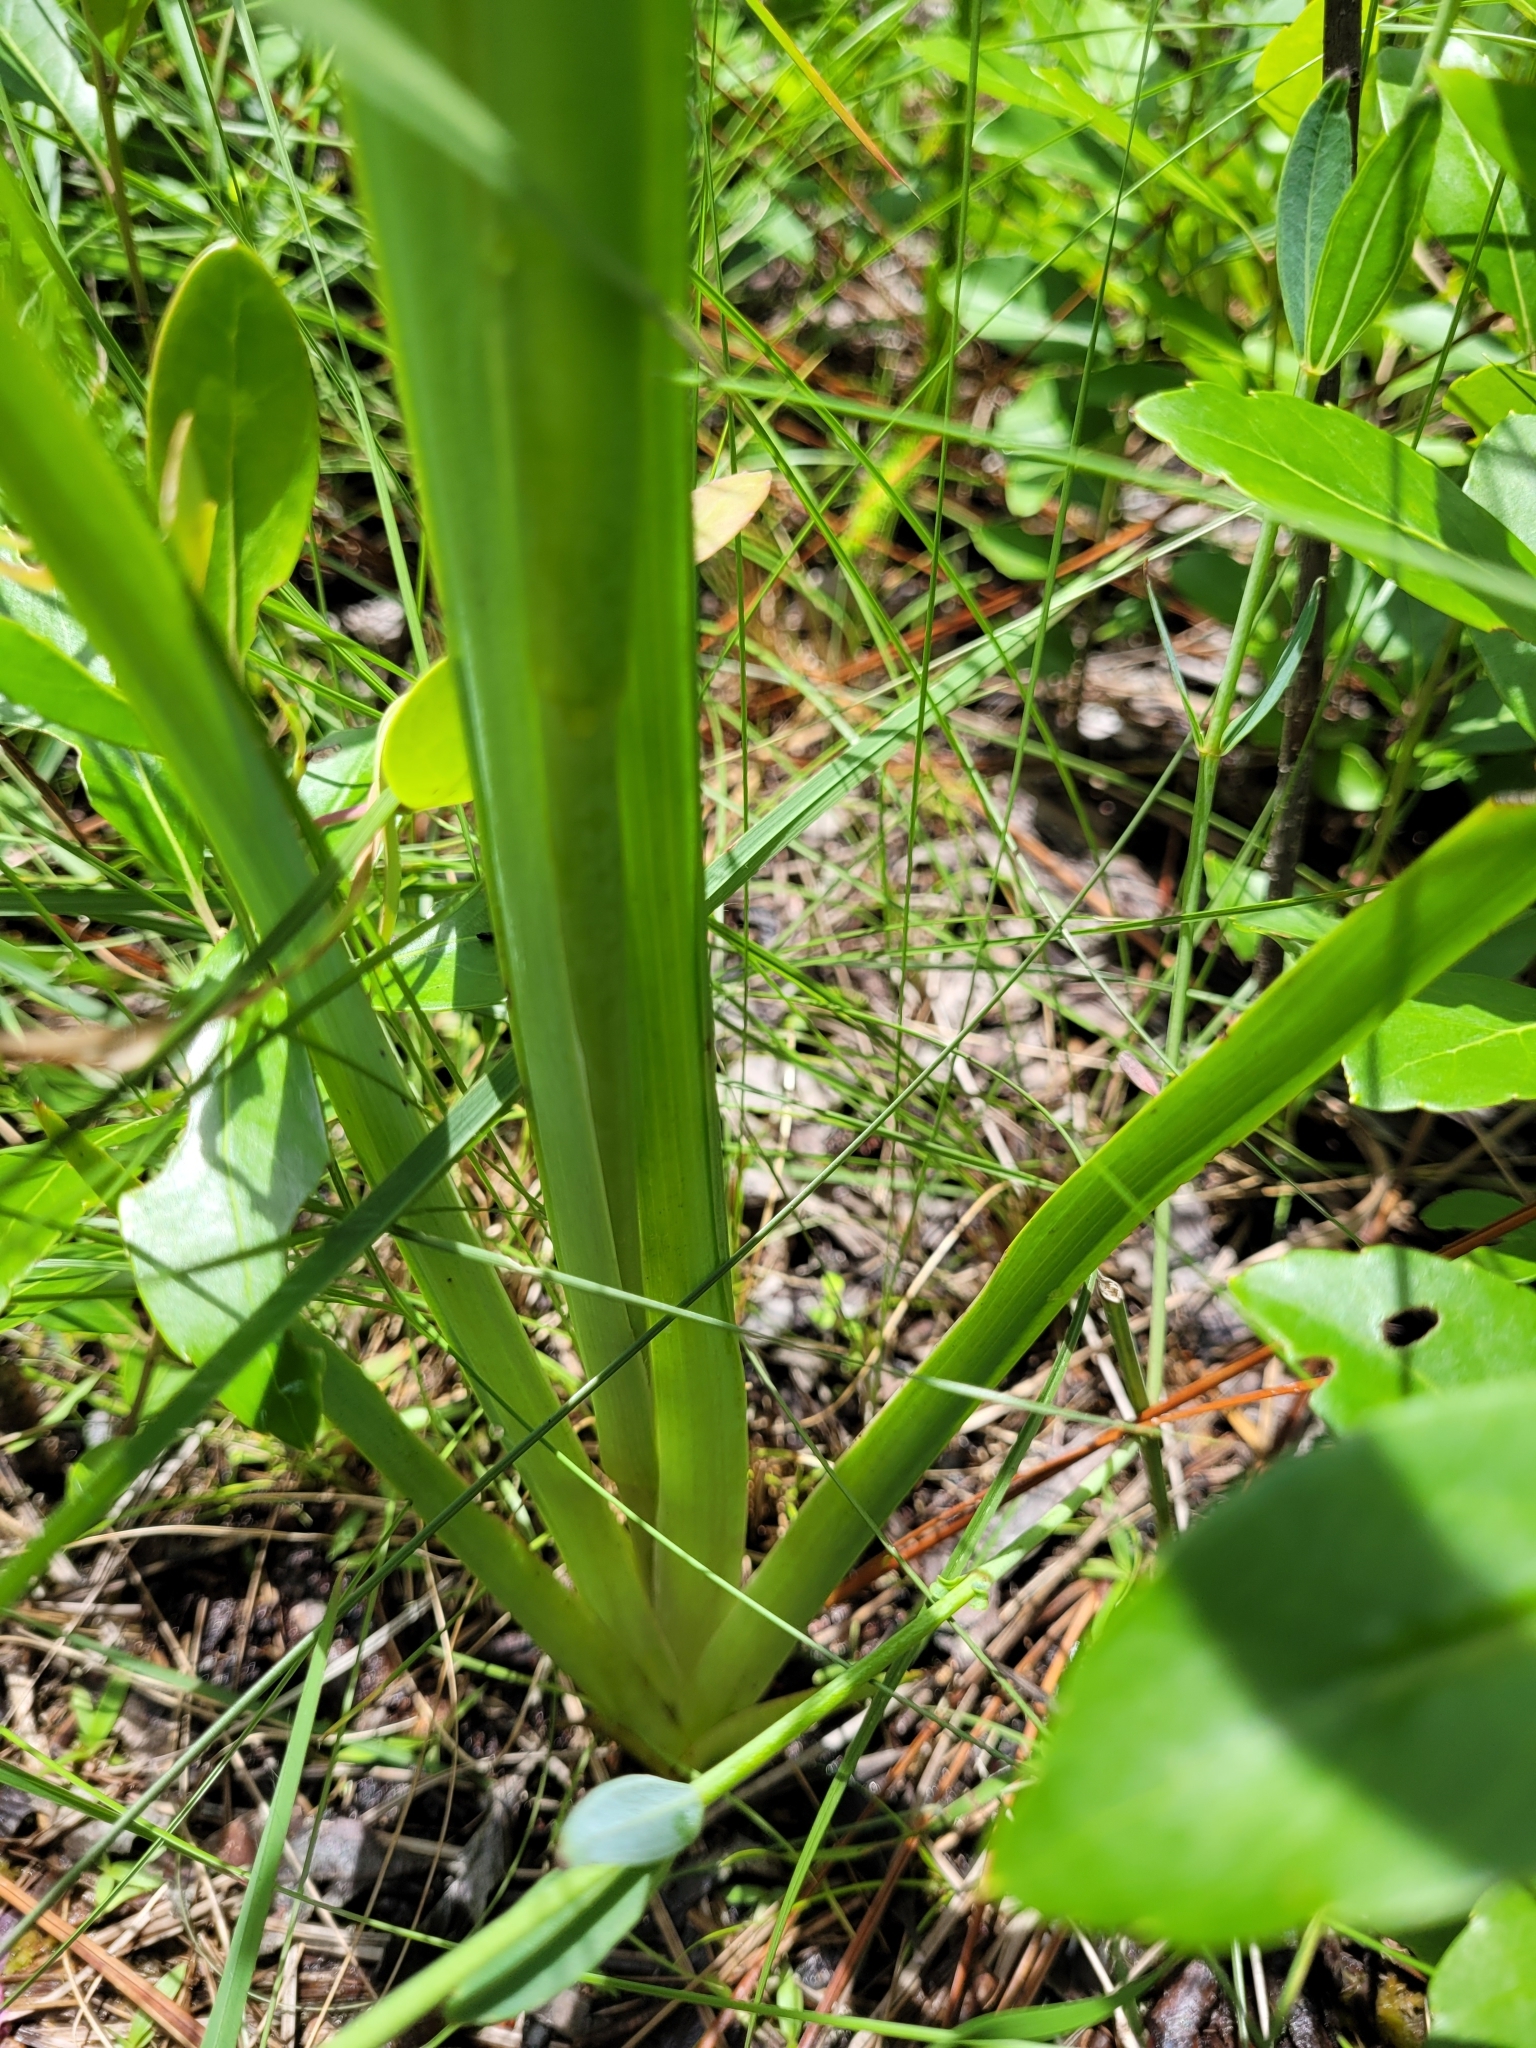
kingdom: Plantae
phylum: Tracheophyta
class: Liliopsida
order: Commelinales
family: Haemodoraceae
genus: Lachnanthes
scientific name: Lachnanthes caroliana
